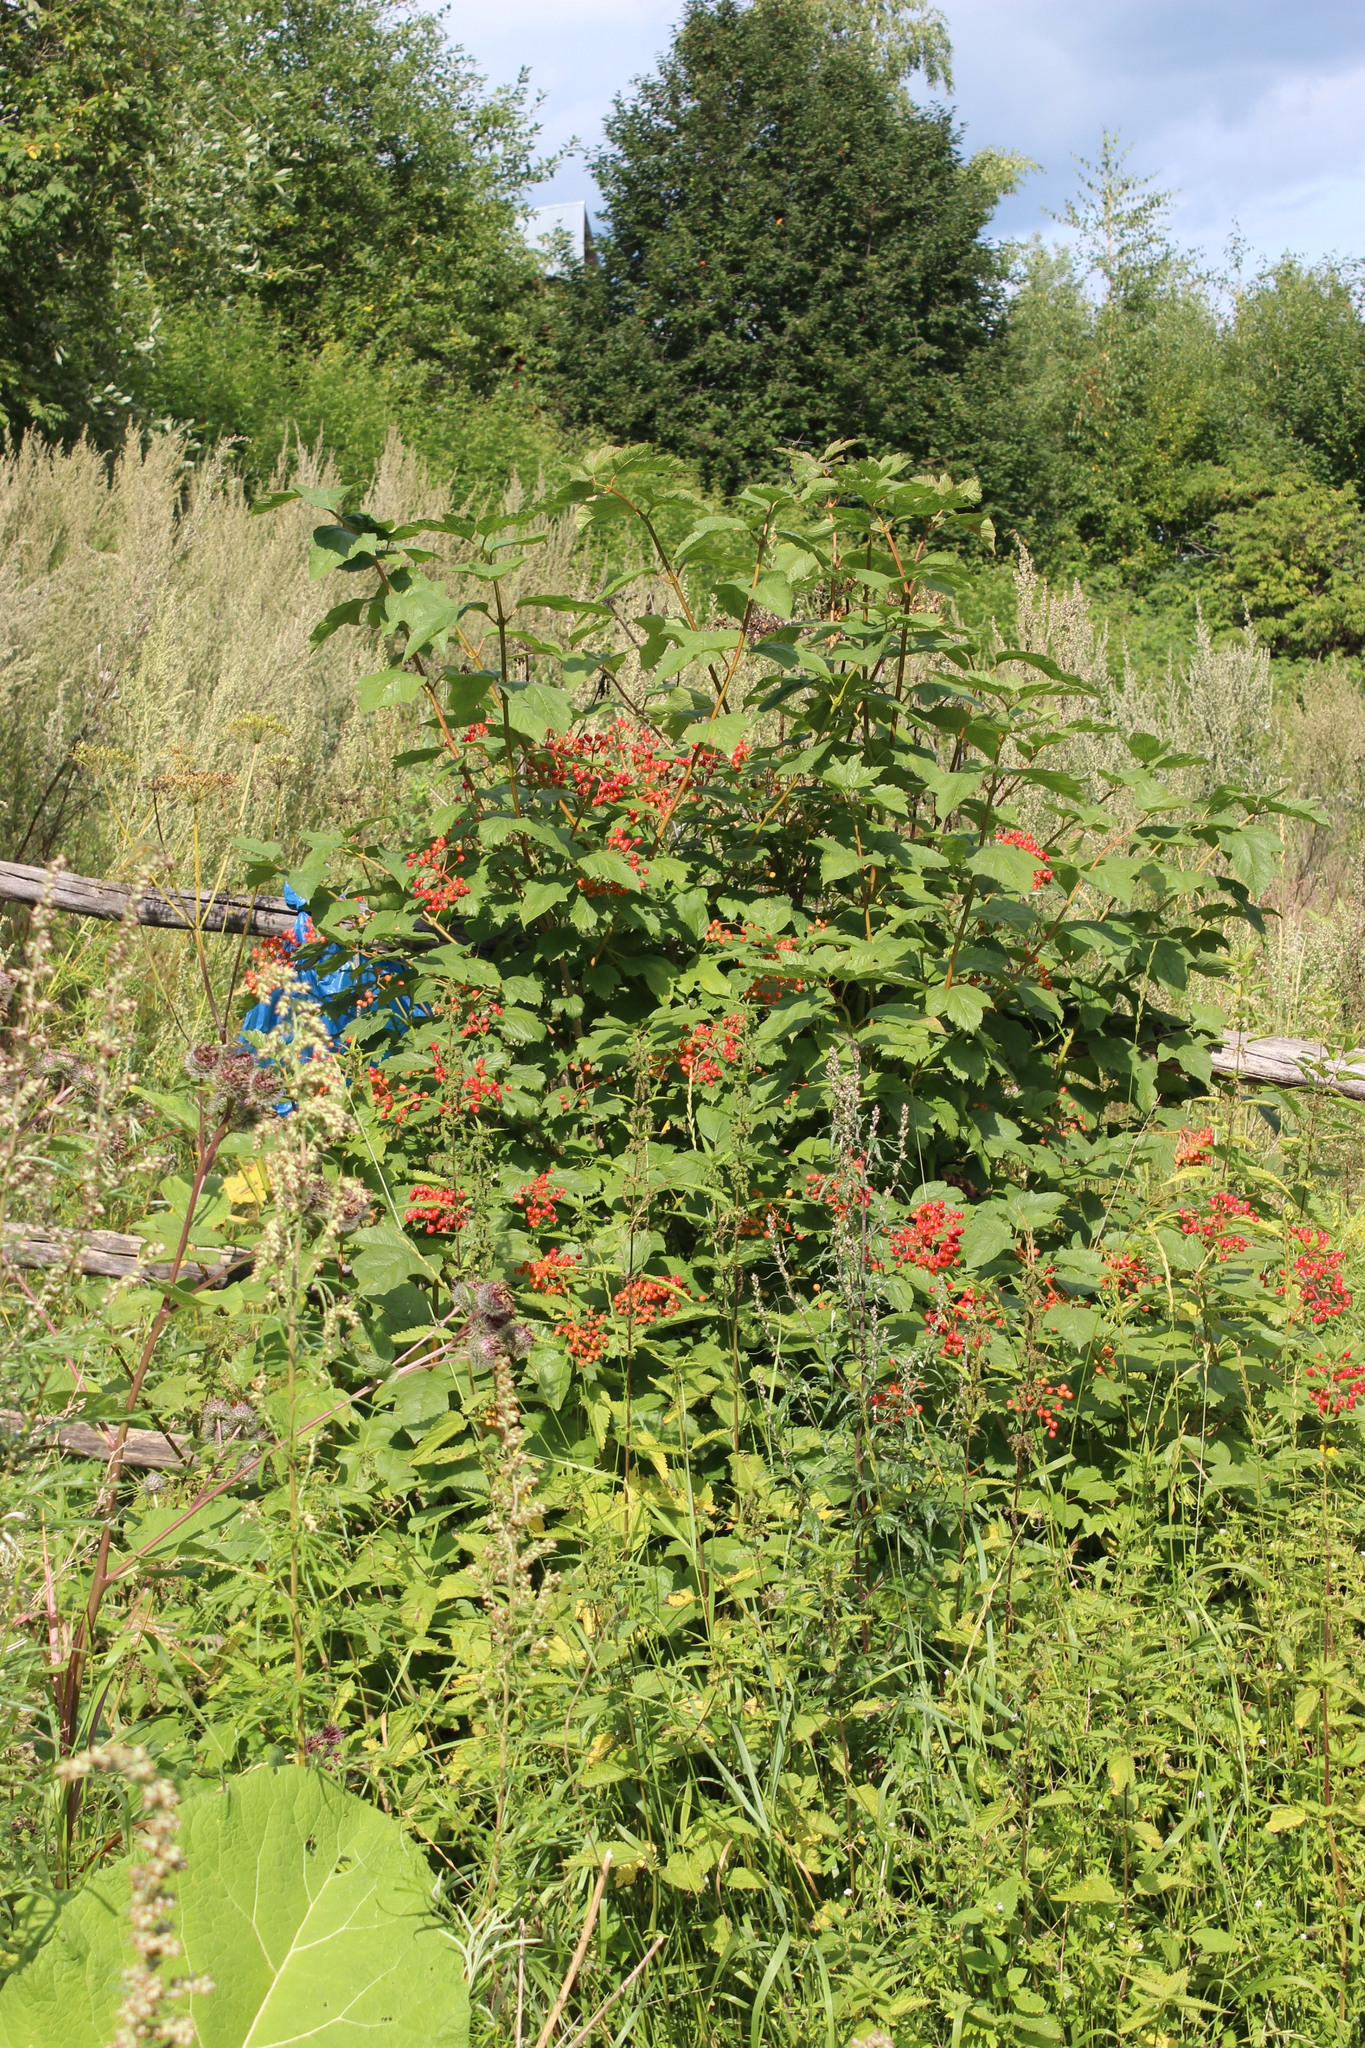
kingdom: Plantae
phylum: Tracheophyta
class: Magnoliopsida
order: Dipsacales
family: Viburnaceae
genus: Viburnum
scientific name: Viburnum opulus
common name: Guelder-rose
